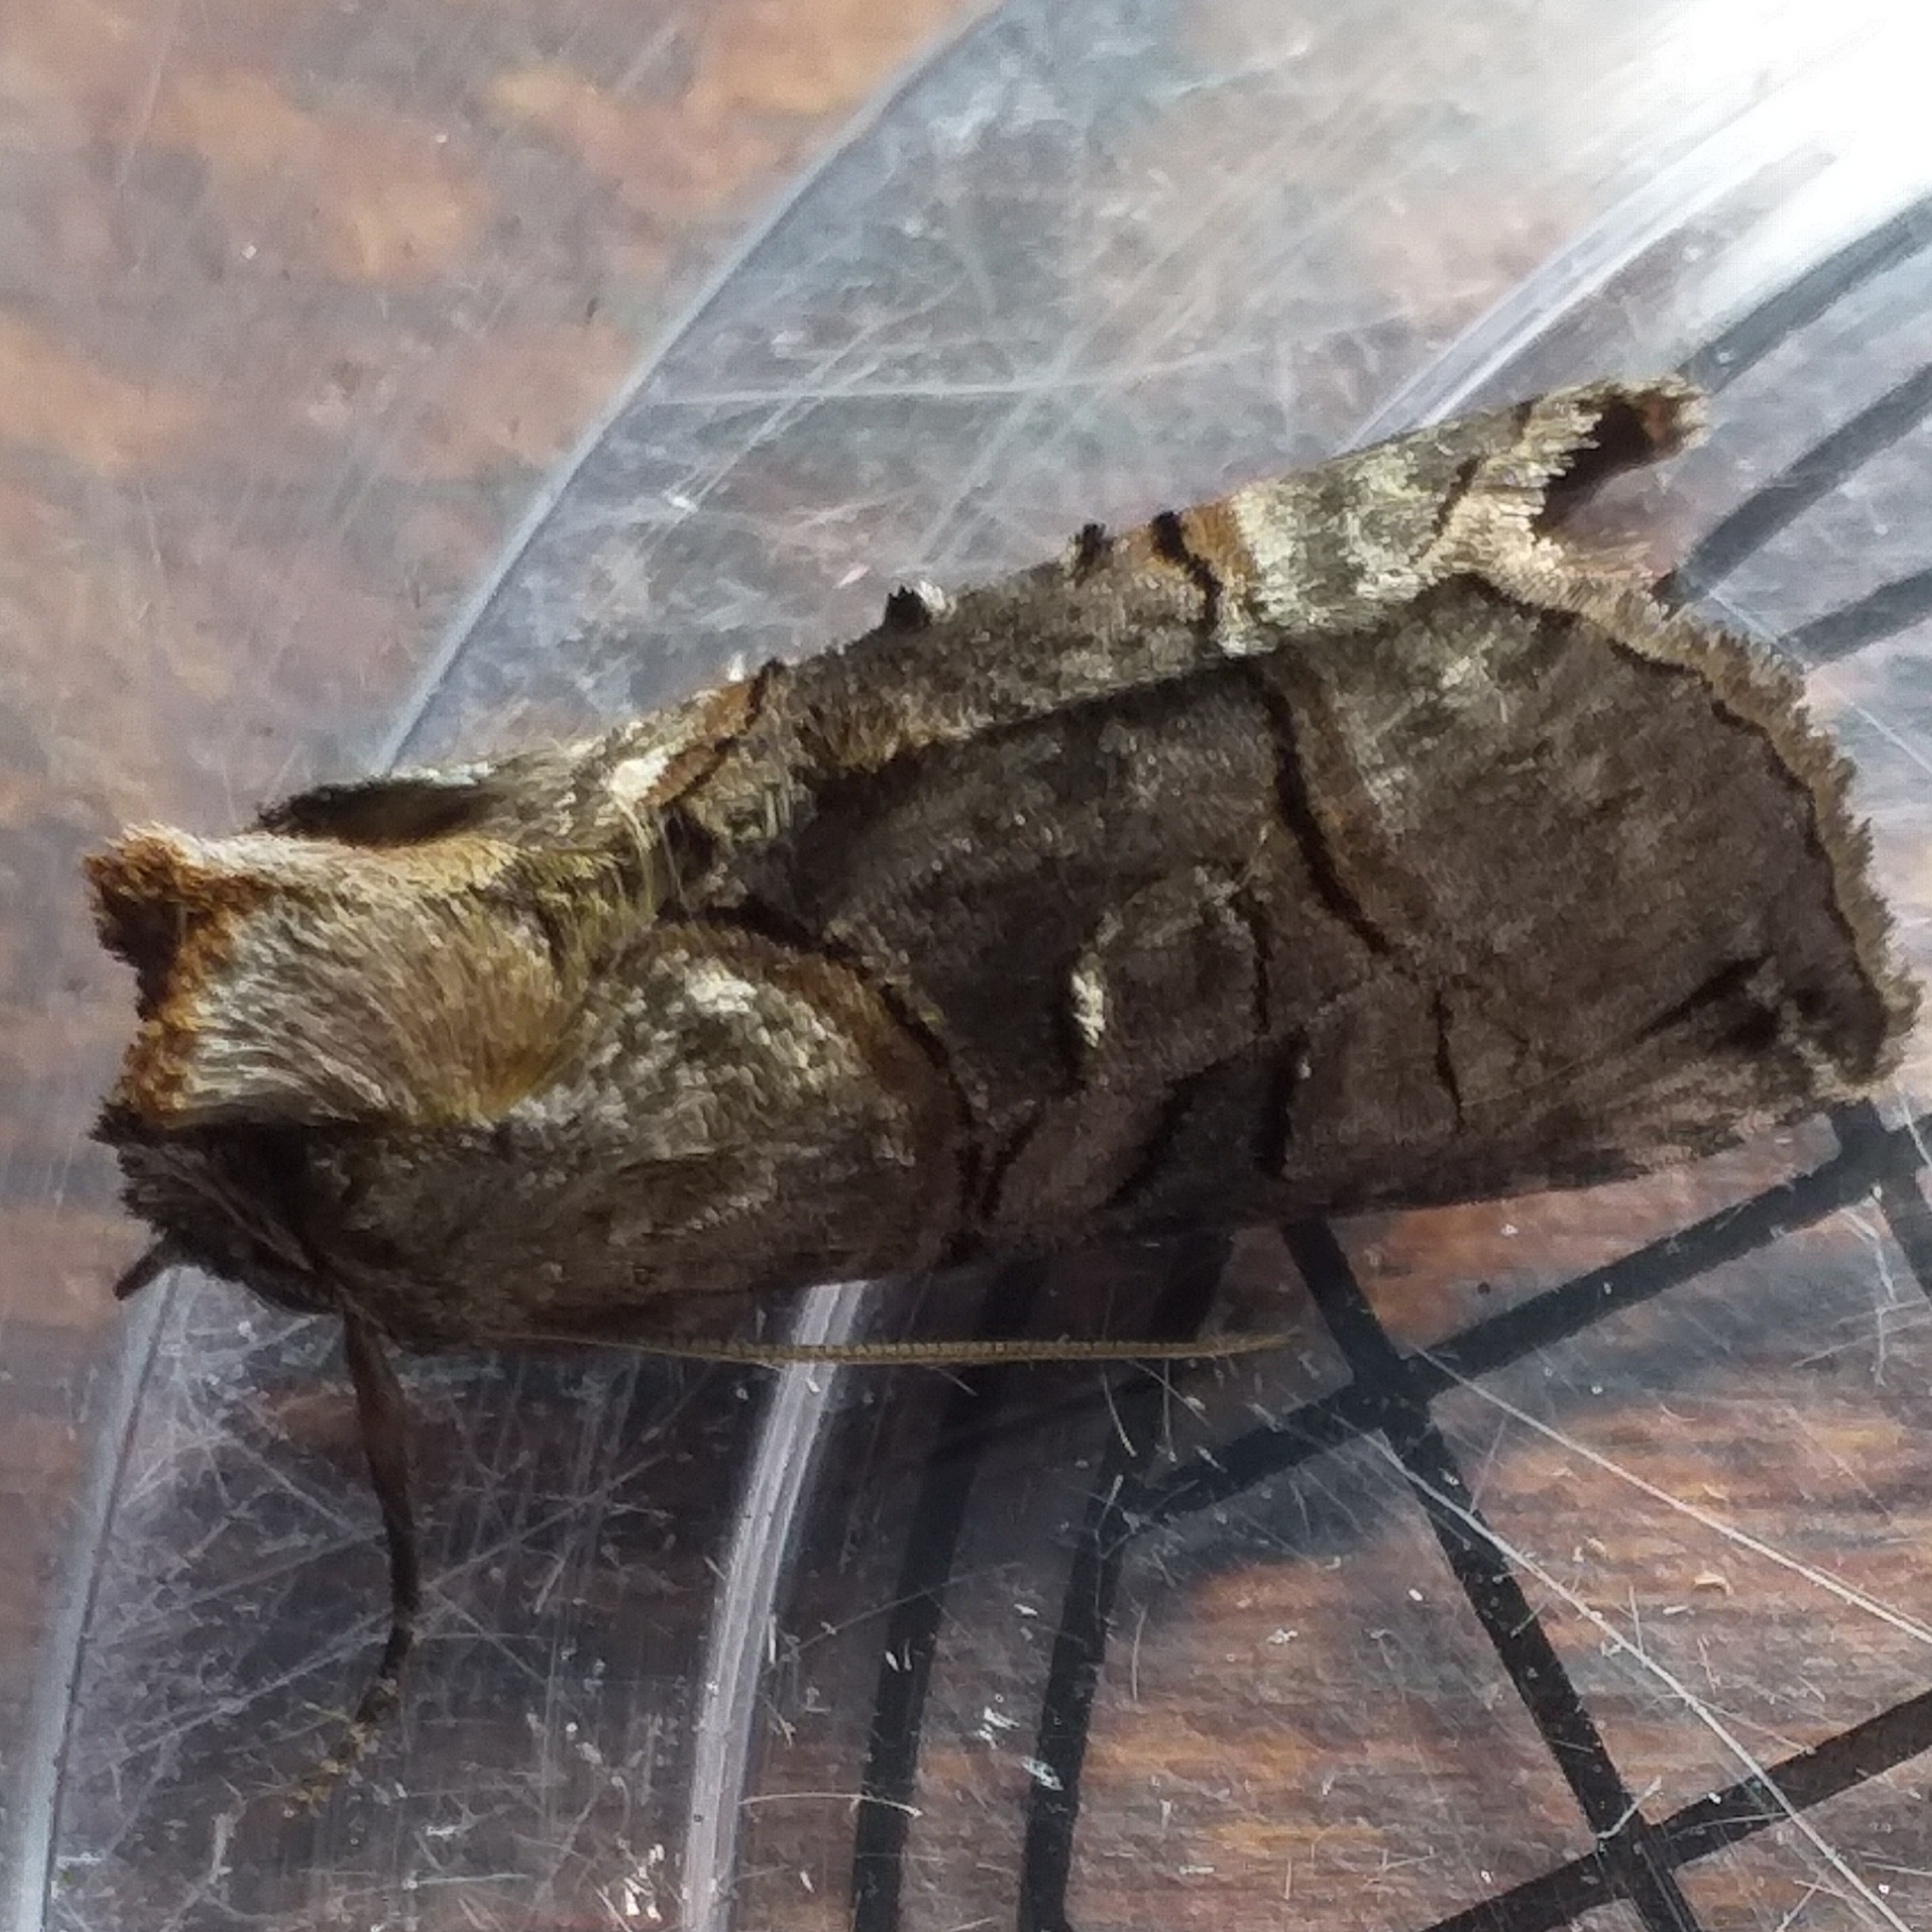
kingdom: Animalia
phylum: Arthropoda
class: Insecta
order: Lepidoptera
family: Noctuidae
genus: Abrostola
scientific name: Abrostola tripartita
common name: Spectacle
